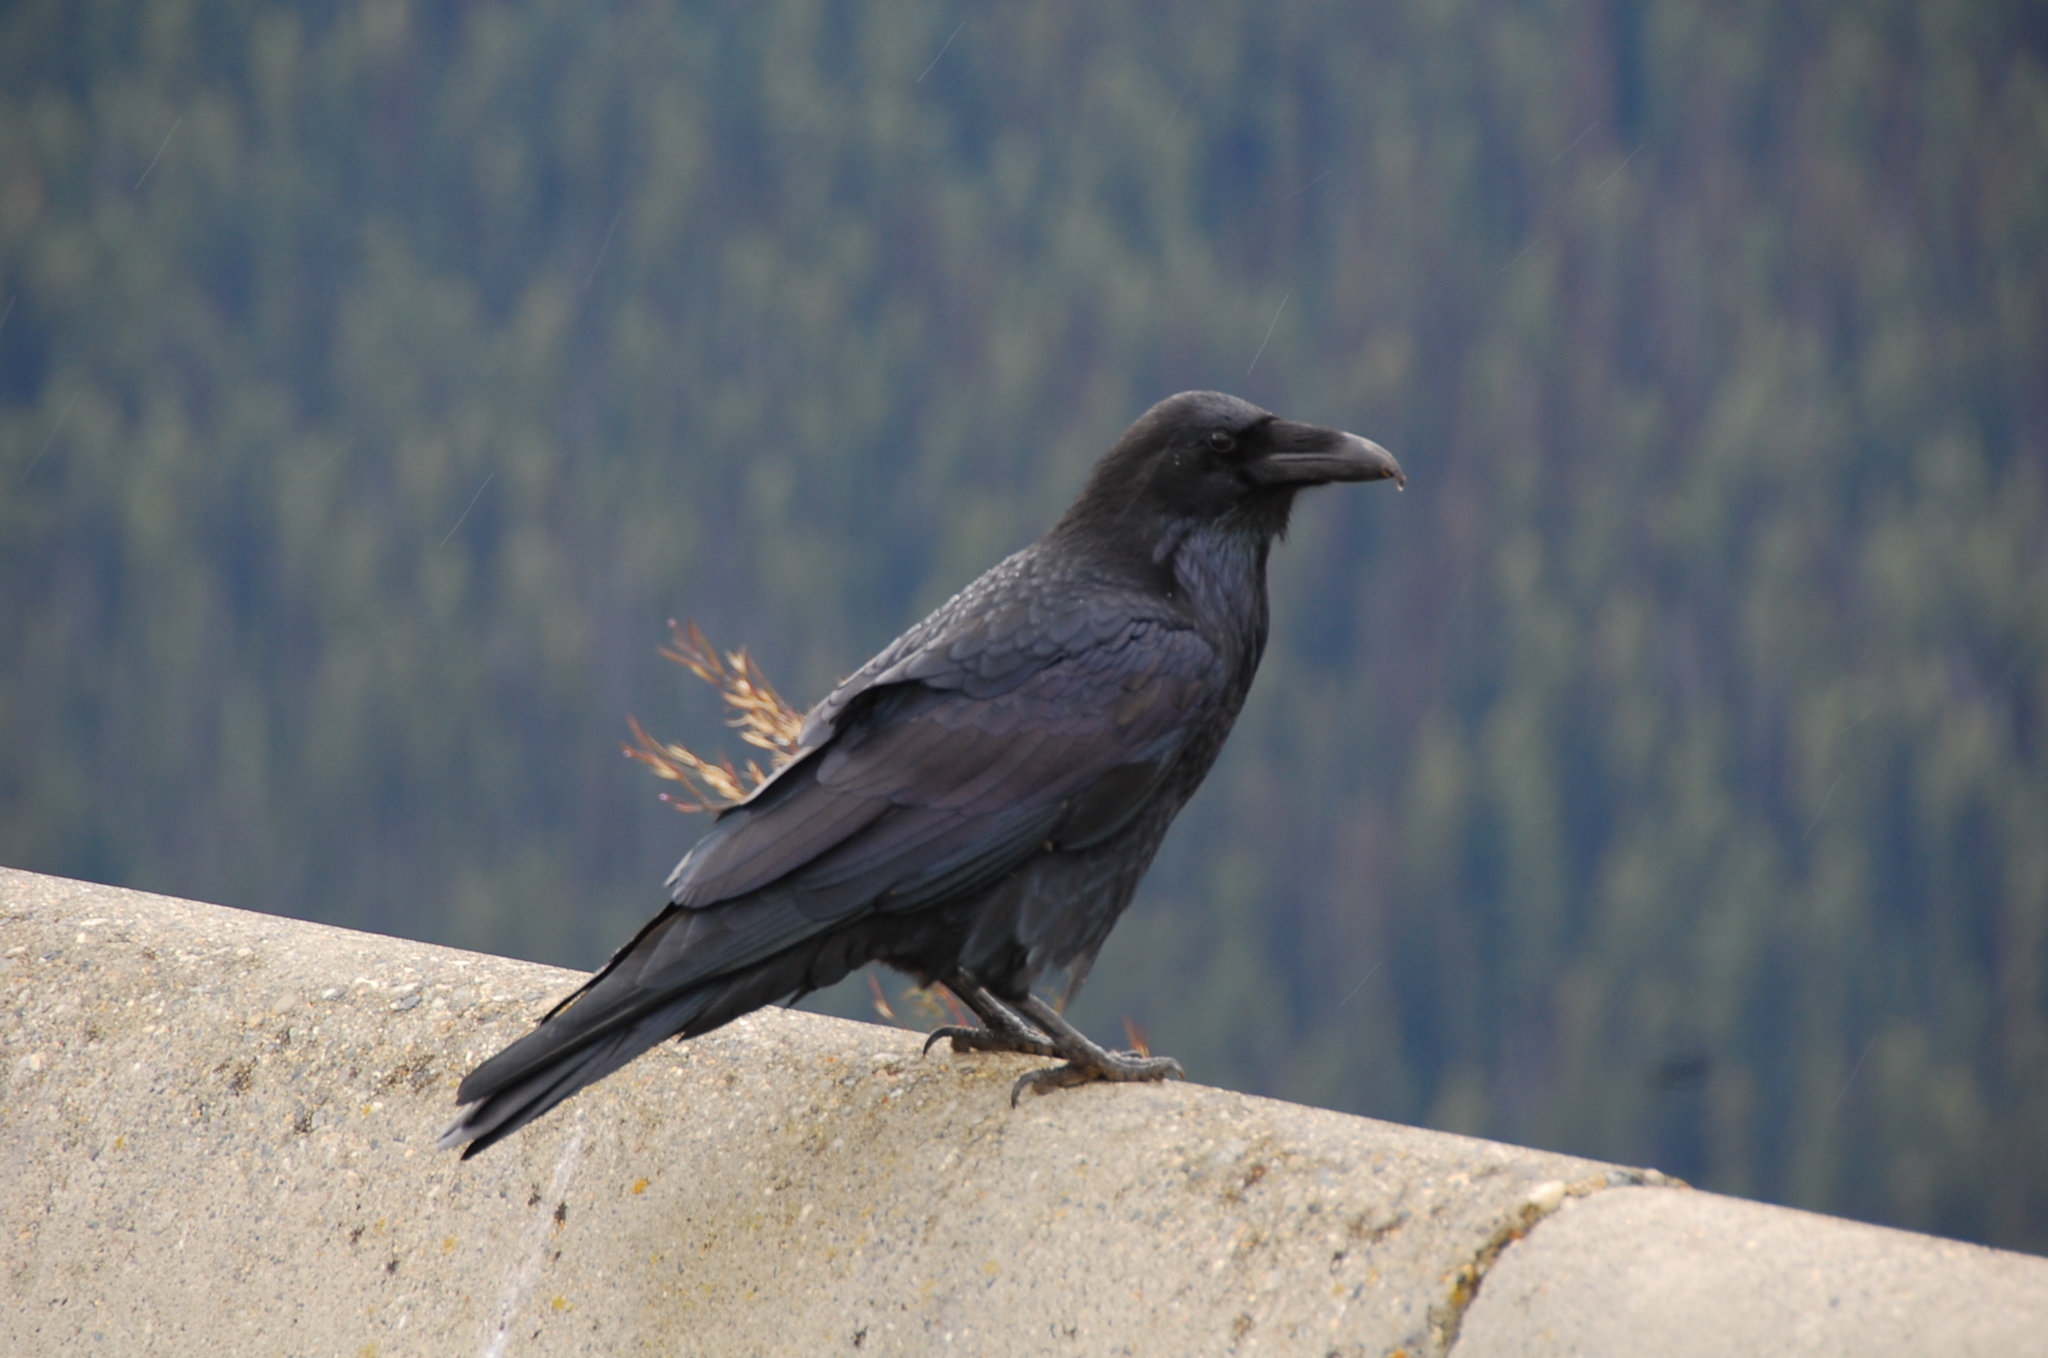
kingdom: Animalia
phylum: Chordata
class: Aves
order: Passeriformes
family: Corvidae
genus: Corvus
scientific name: Corvus corax
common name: Common raven
